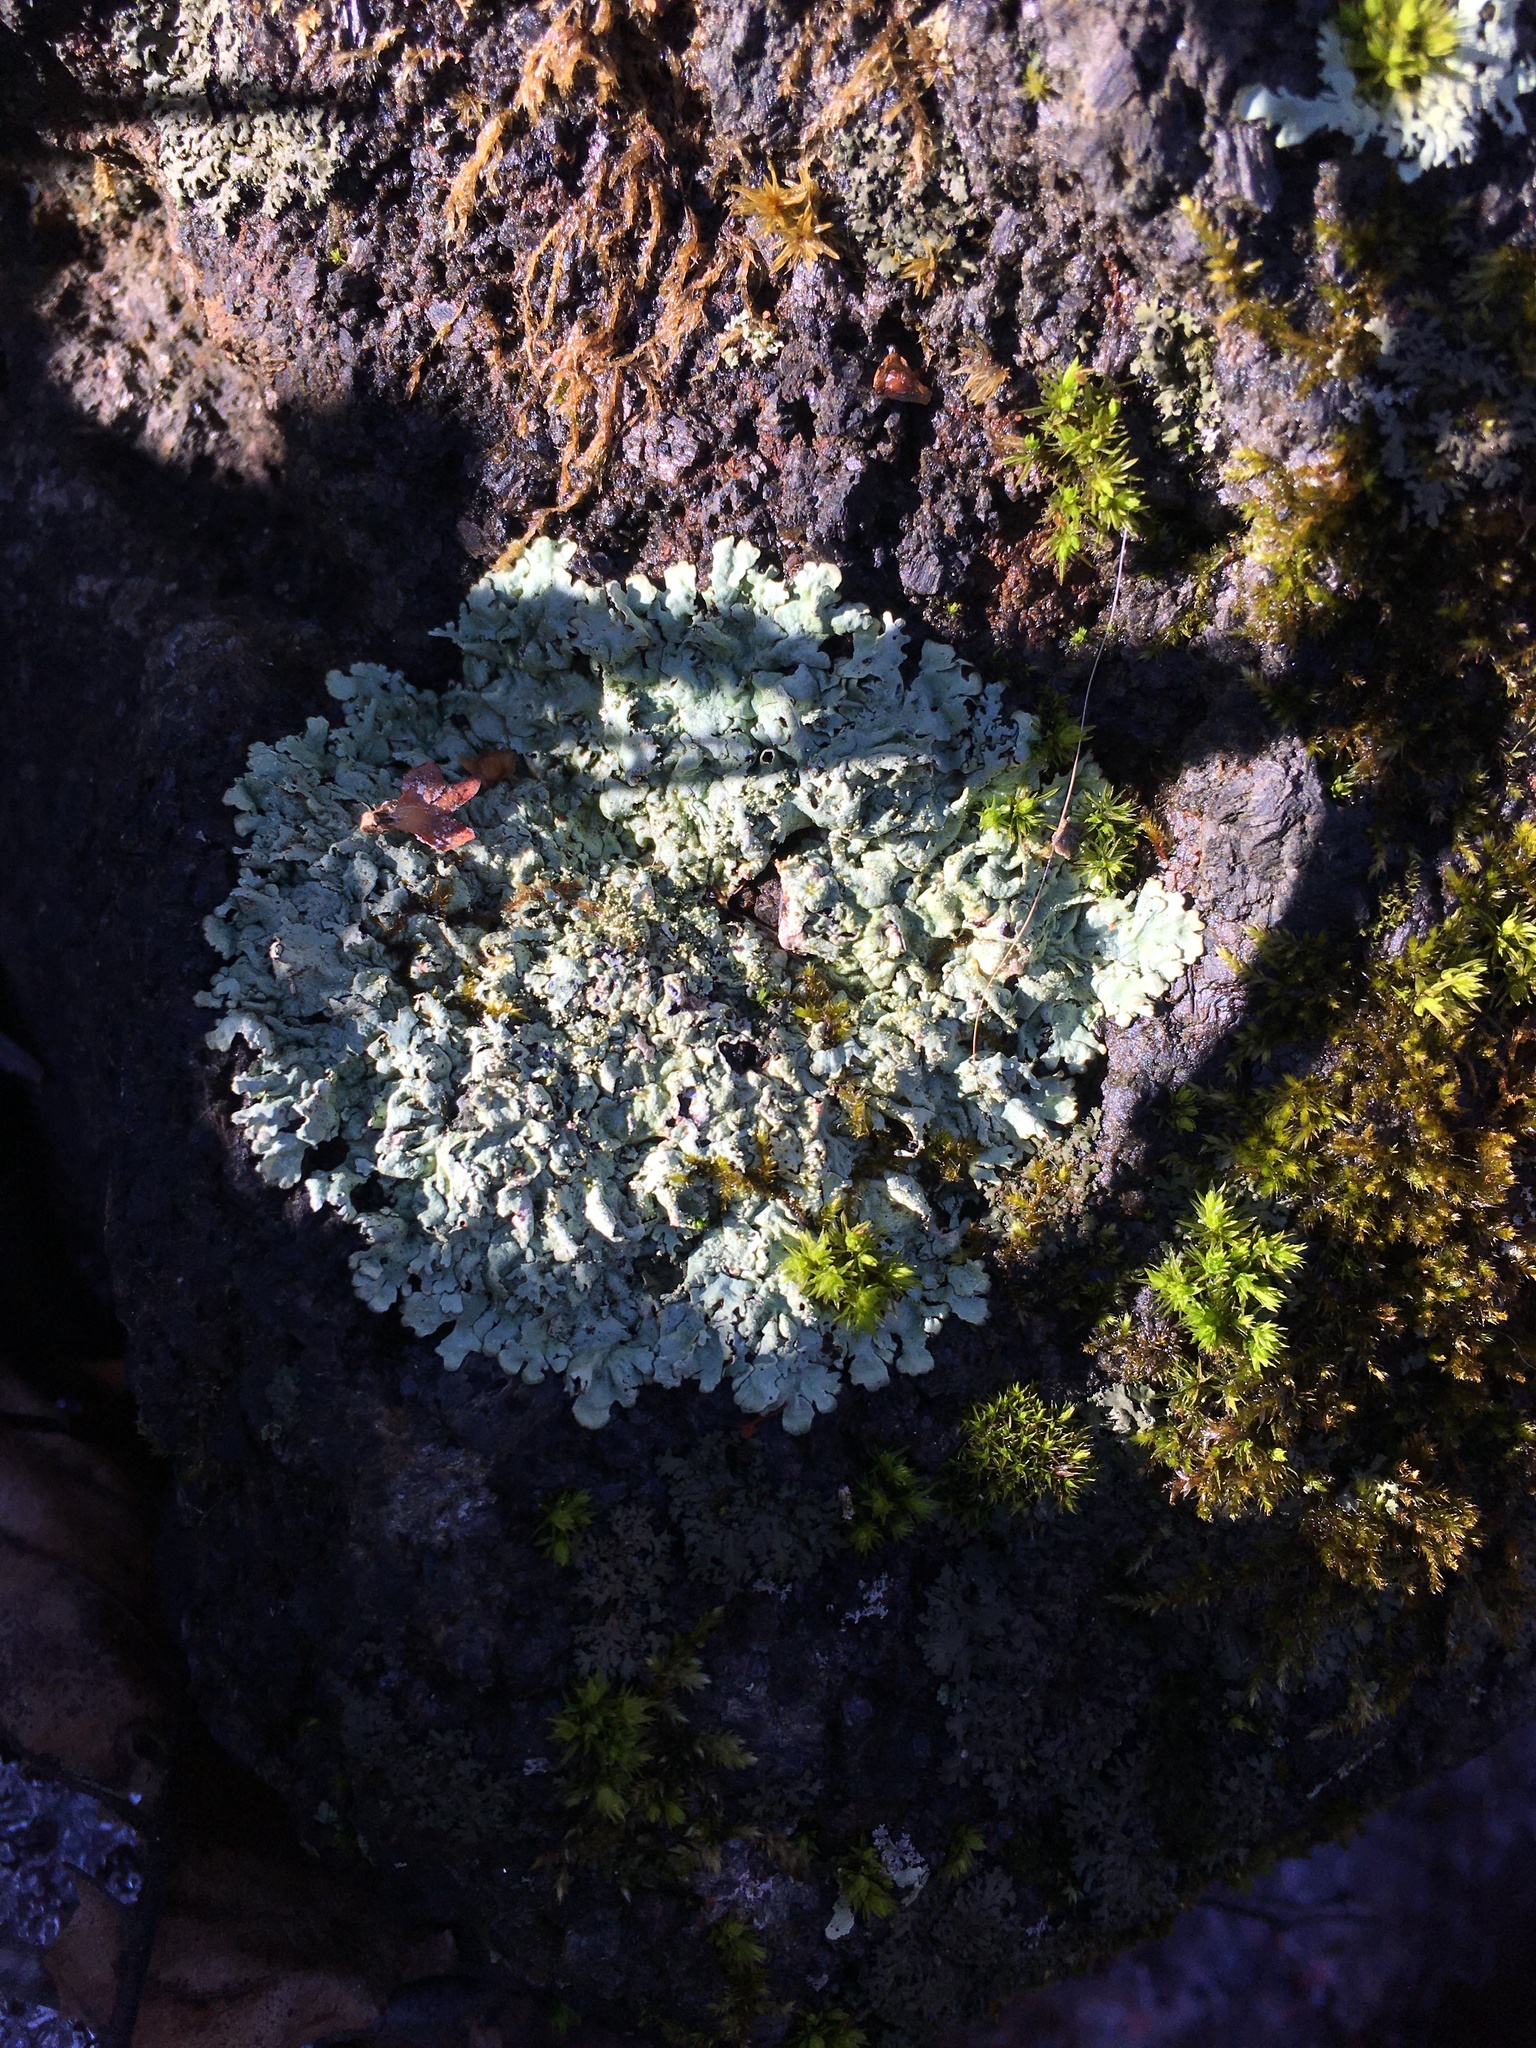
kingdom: Fungi
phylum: Ascomycota
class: Lecanoromycetes
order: Lecanorales
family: Parmeliaceae
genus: Xanthoparmelia
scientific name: Xanthoparmelia
